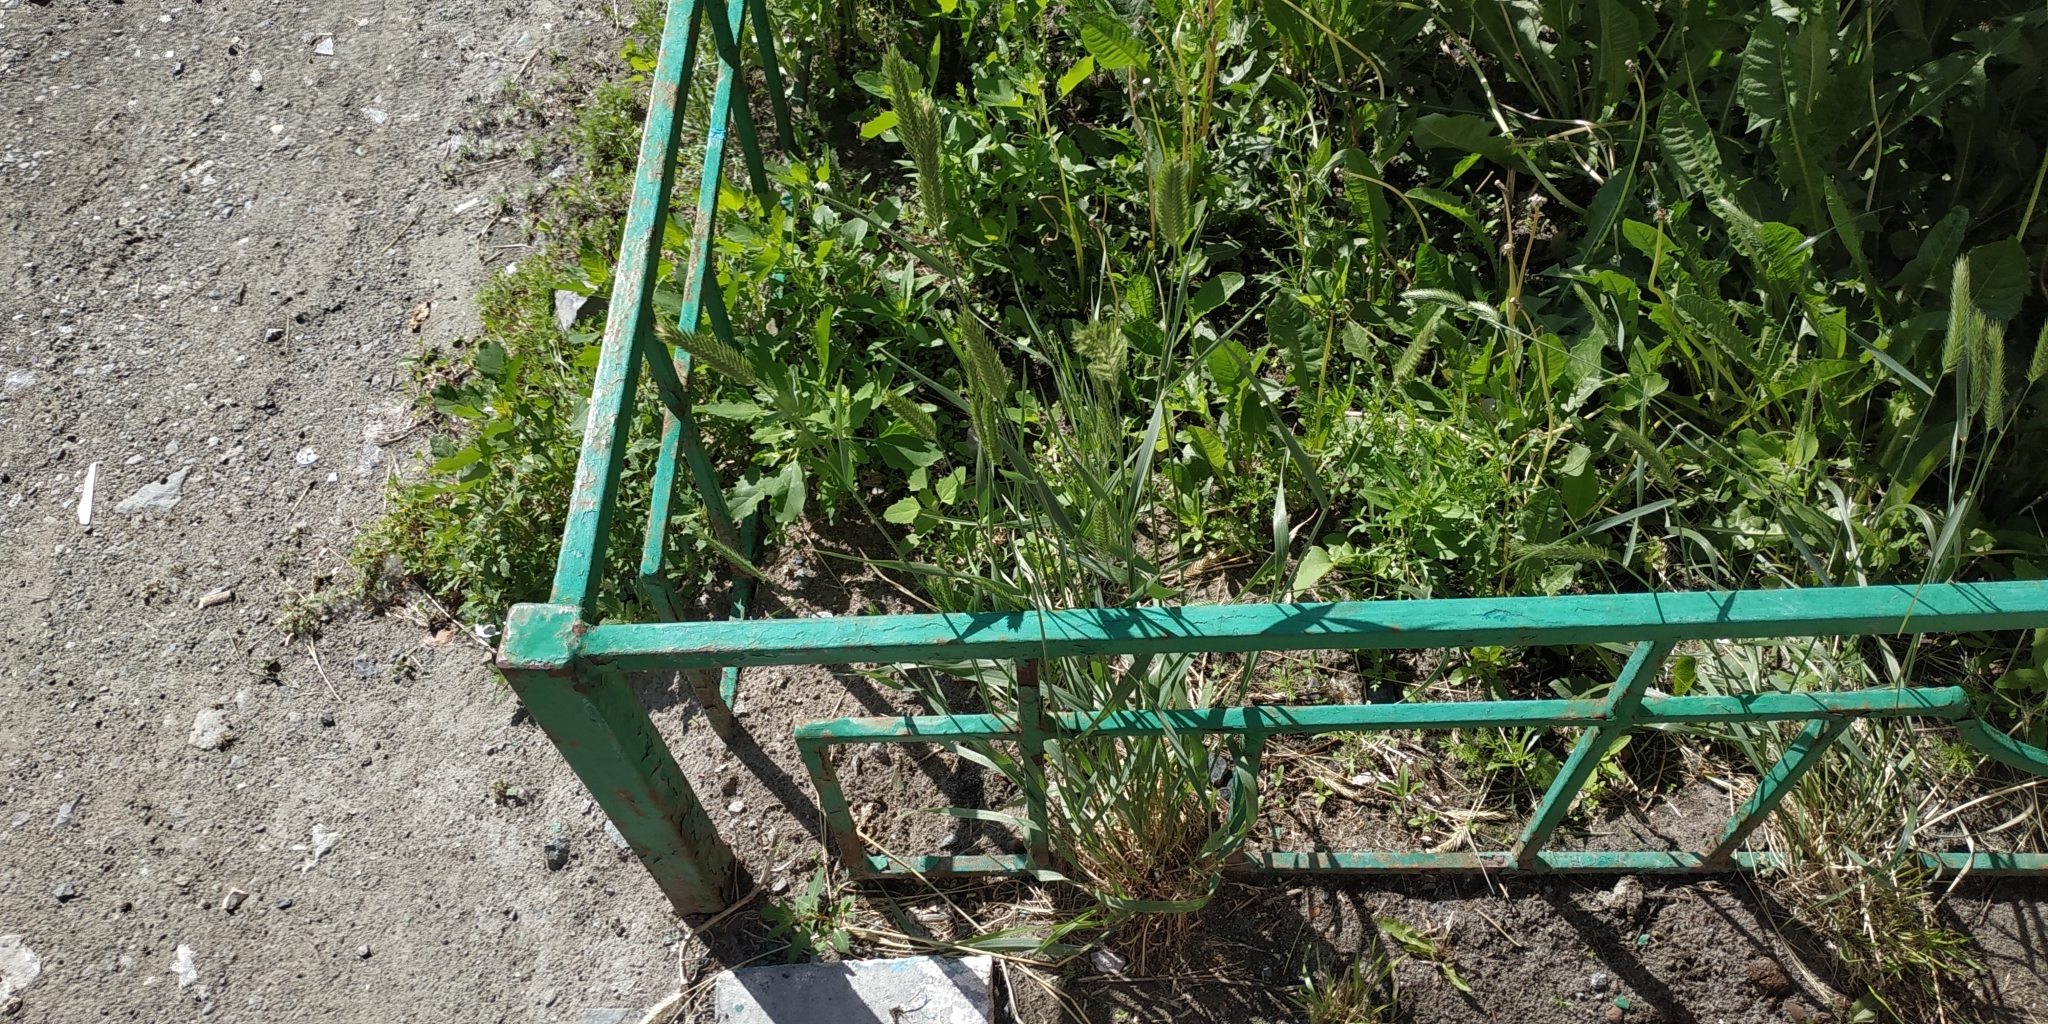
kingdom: Plantae
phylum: Tracheophyta
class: Liliopsida
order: Poales
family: Poaceae
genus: Agropyron
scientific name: Agropyron cristatum
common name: Crested wheatgrass
